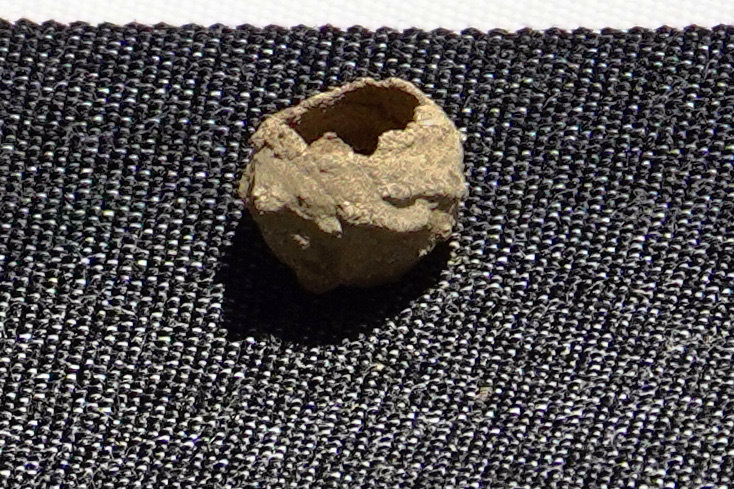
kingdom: Animalia
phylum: Arthropoda
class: Insecta
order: Hymenoptera
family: Vespidae
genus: Eumenes
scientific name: Eumenes
